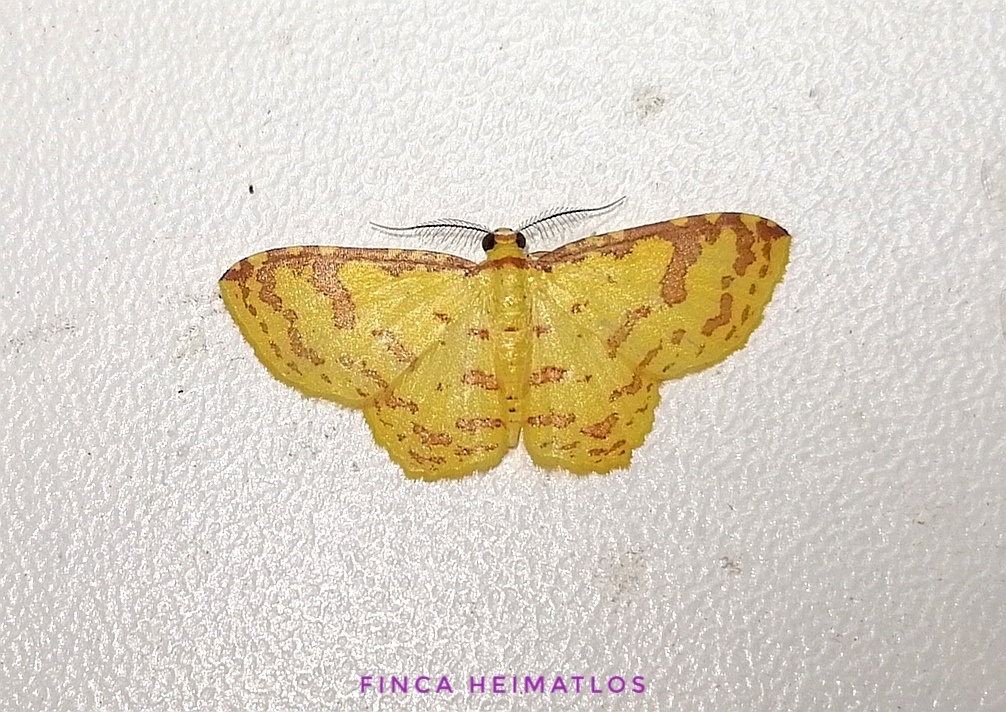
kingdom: Animalia
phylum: Arthropoda
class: Insecta
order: Lepidoptera
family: Geometridae
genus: Eois
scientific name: Eois russearia
